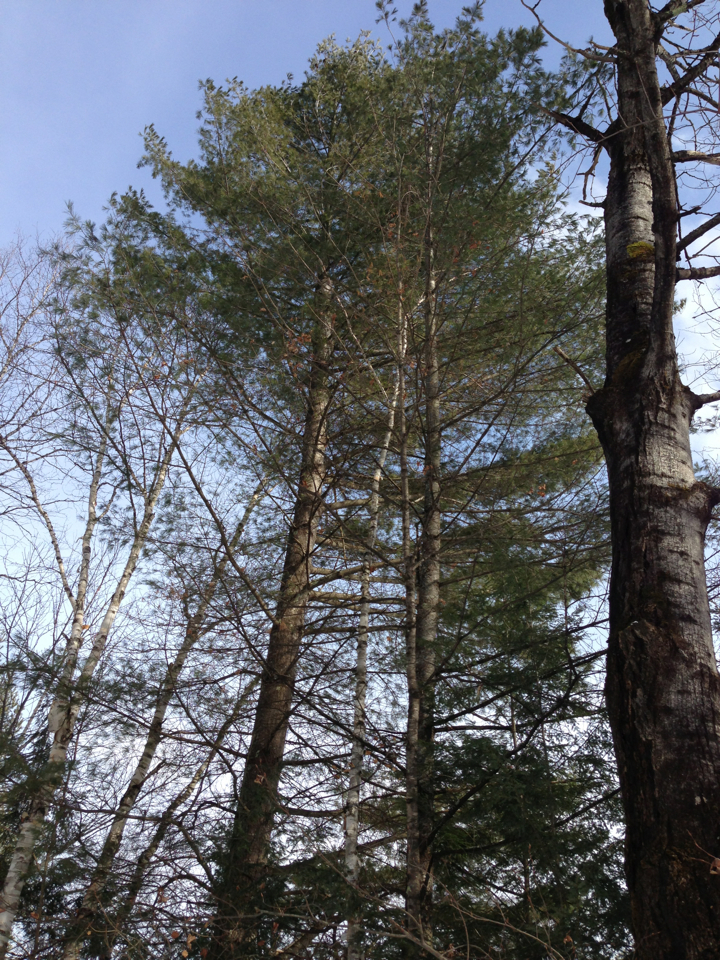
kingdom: Plantae
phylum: Tracheophyta
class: Pinopsida
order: Pinales
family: Pinaceae
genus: Pinus
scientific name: Pinus strobus
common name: Weymouth pine
